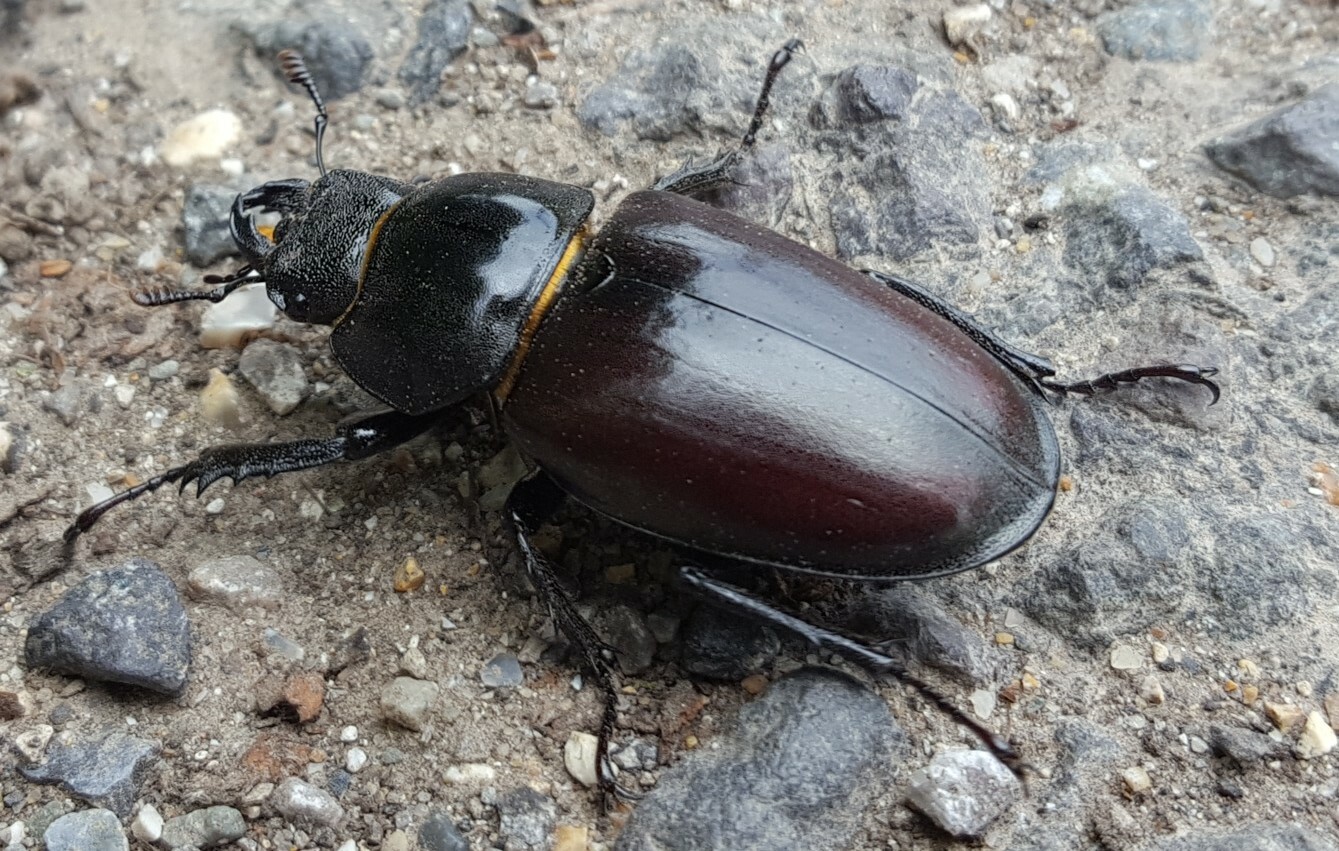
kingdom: Animalia
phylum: Arthropoda
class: Insecta
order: Coleoptera
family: Lucanidae
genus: Lucanus
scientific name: Lucanus cervus
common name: Stag beetle
